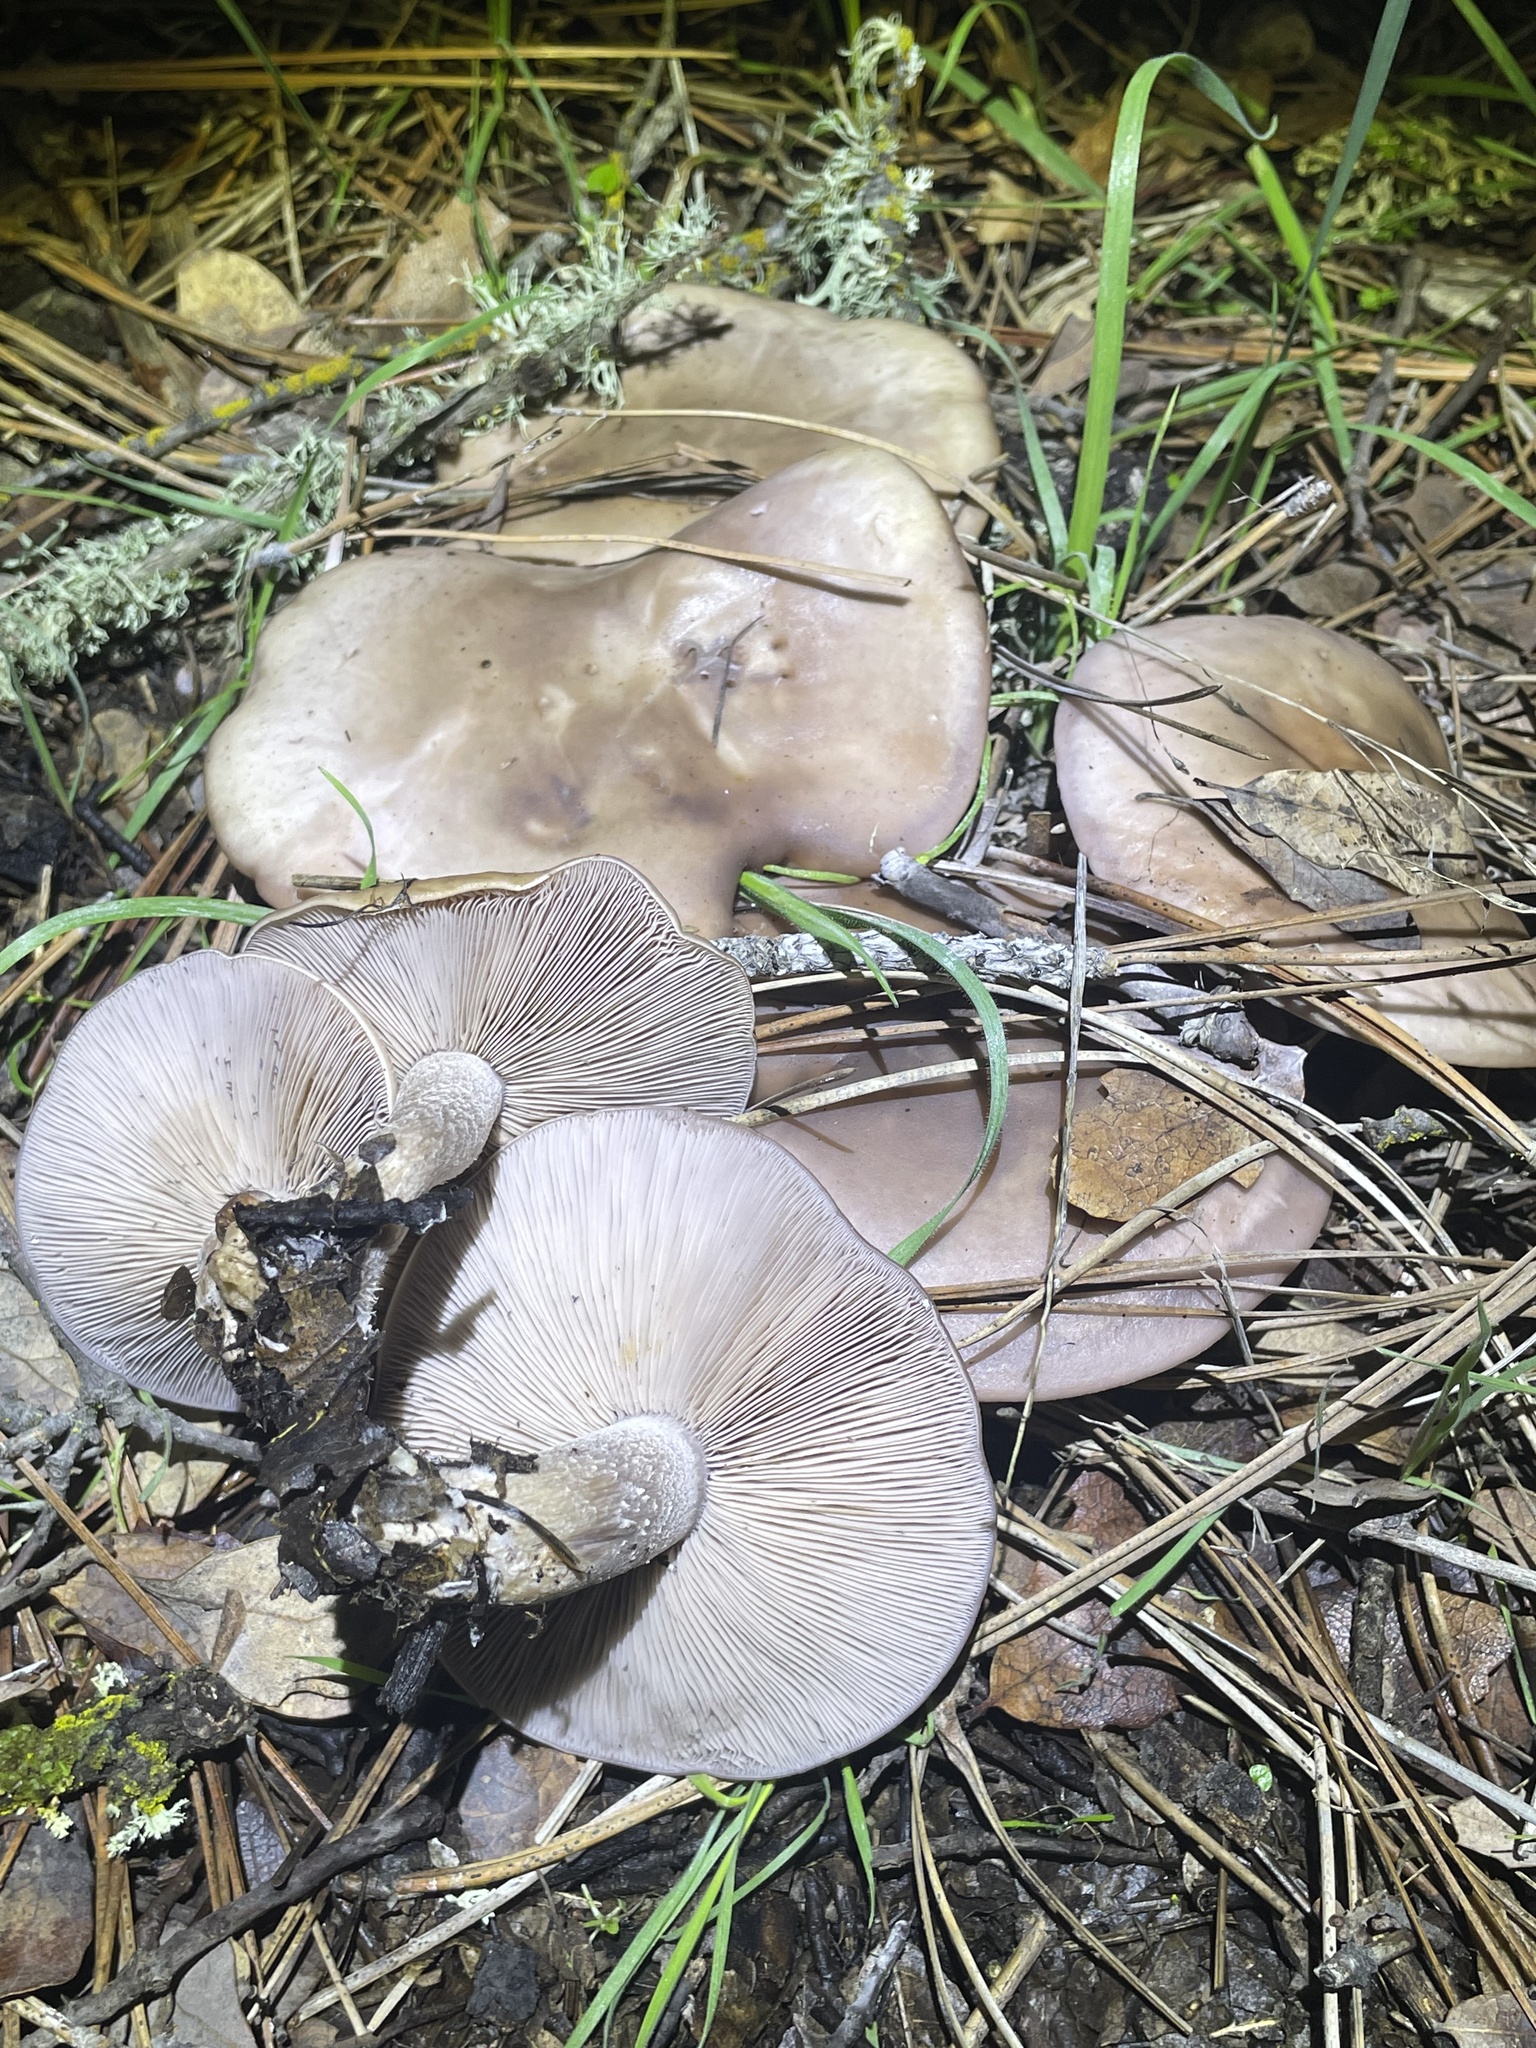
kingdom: Fungi
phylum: Basidiomycota
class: Agaricomycetes
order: Agaricales
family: Tricholomataceae
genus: Collybia
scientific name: Collybia
